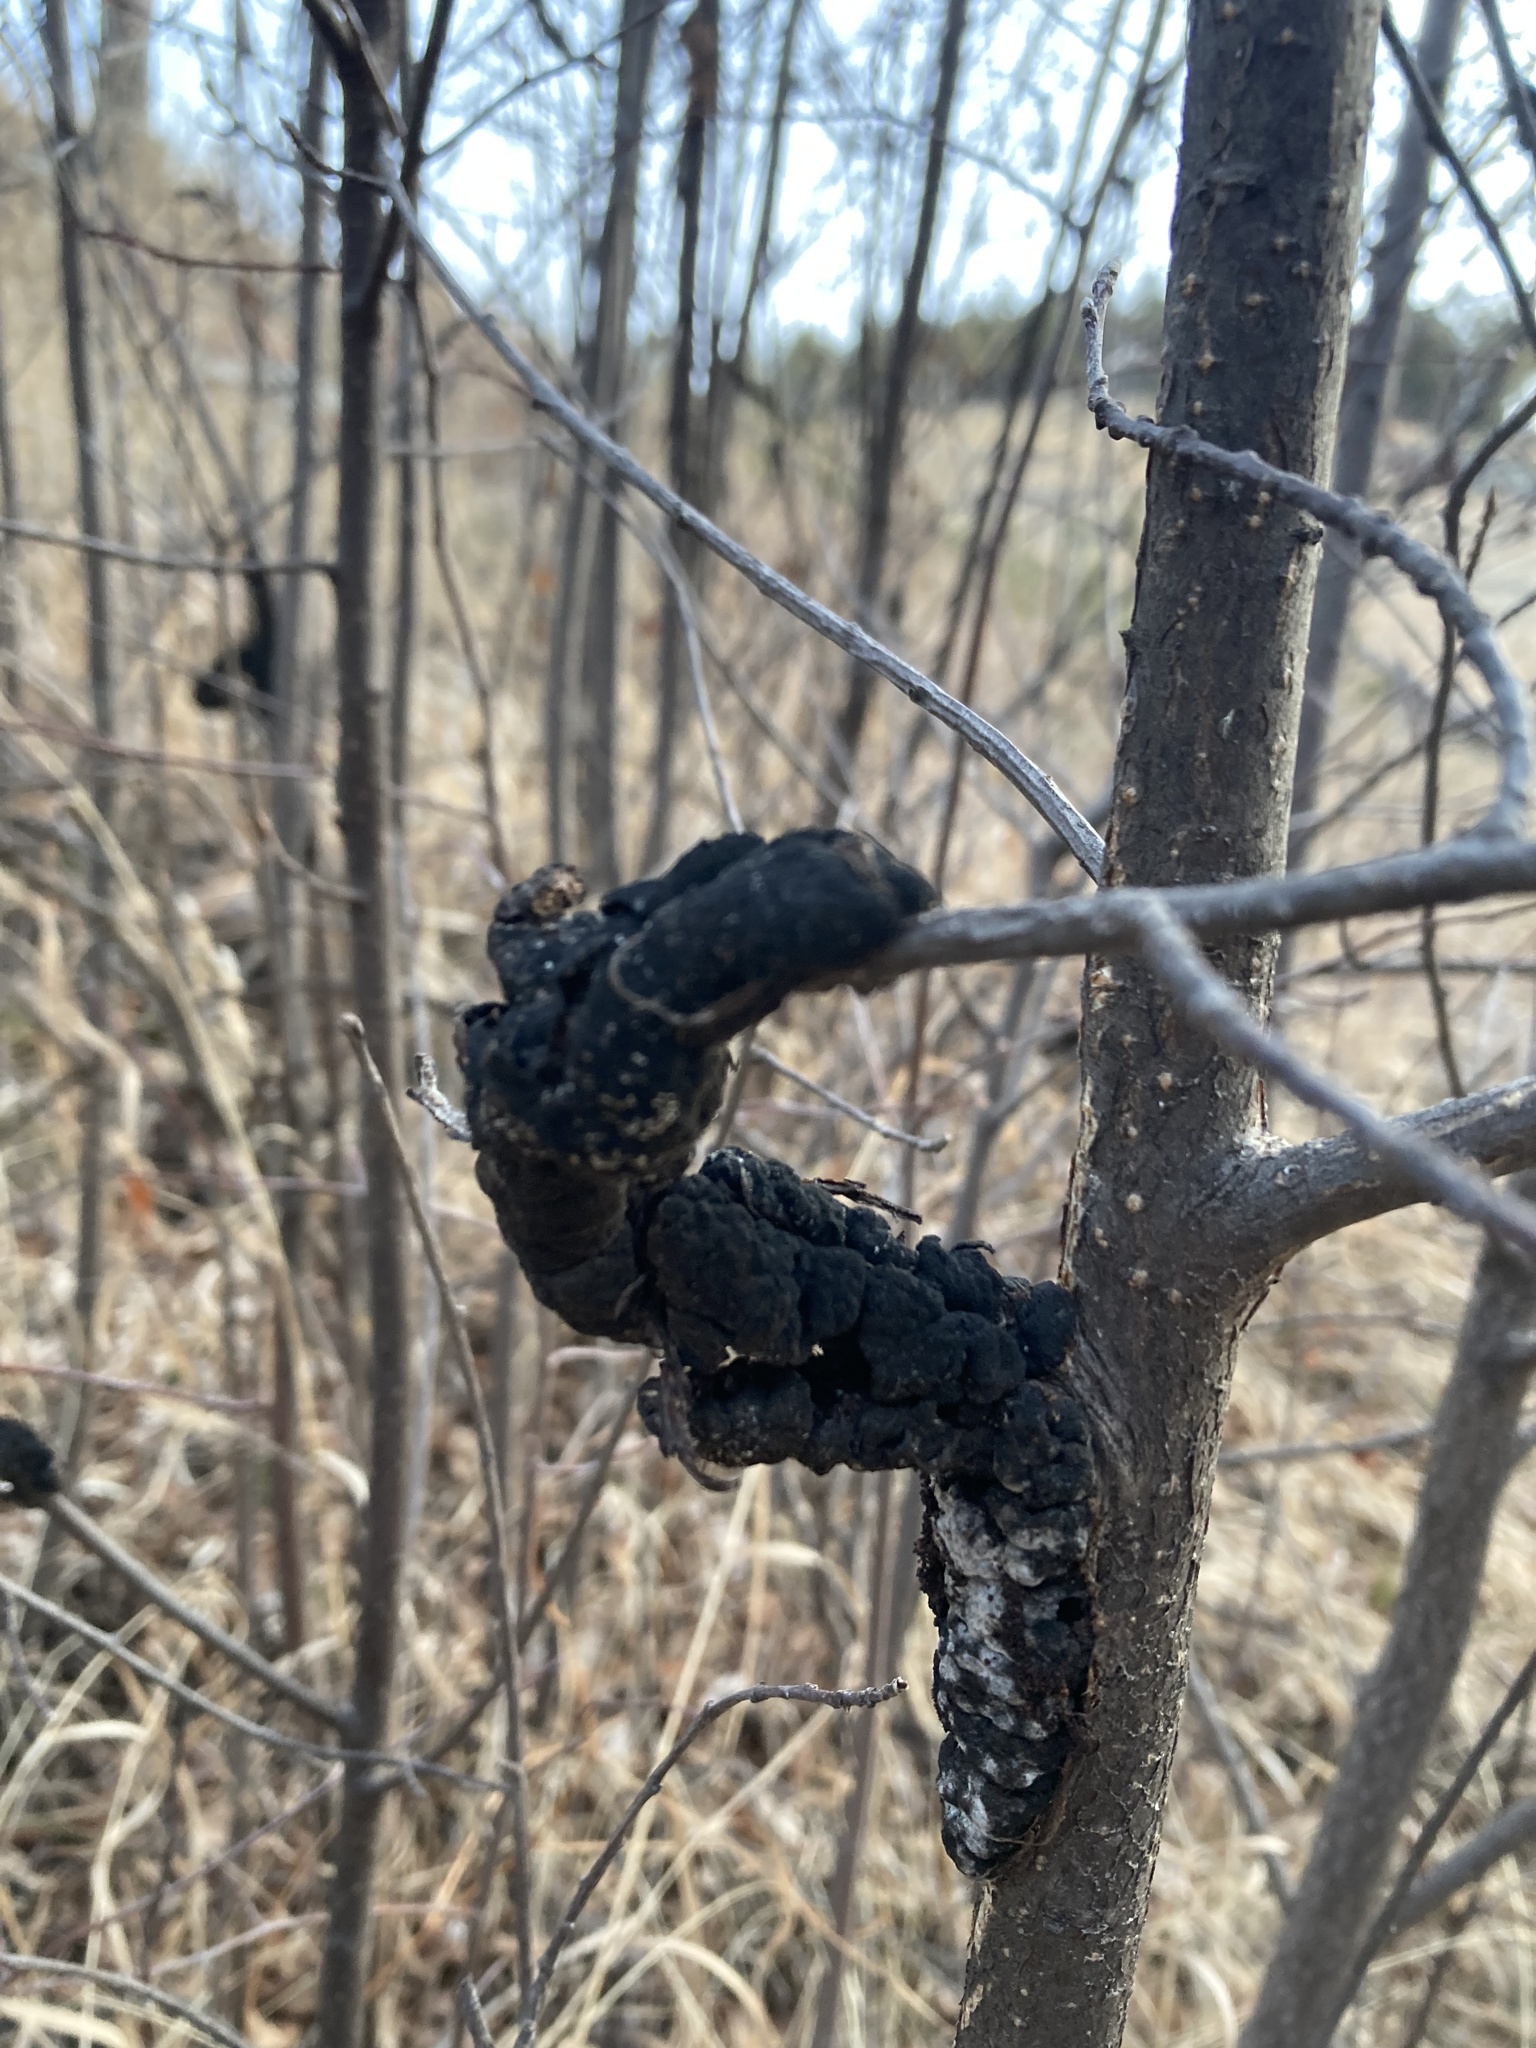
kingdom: Fungi
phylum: Ascomycota
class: Dothideomycetes
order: Venturiales
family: Venturiaceae
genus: Apiosporina
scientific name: Apiosporina morbosa
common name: Black knot
